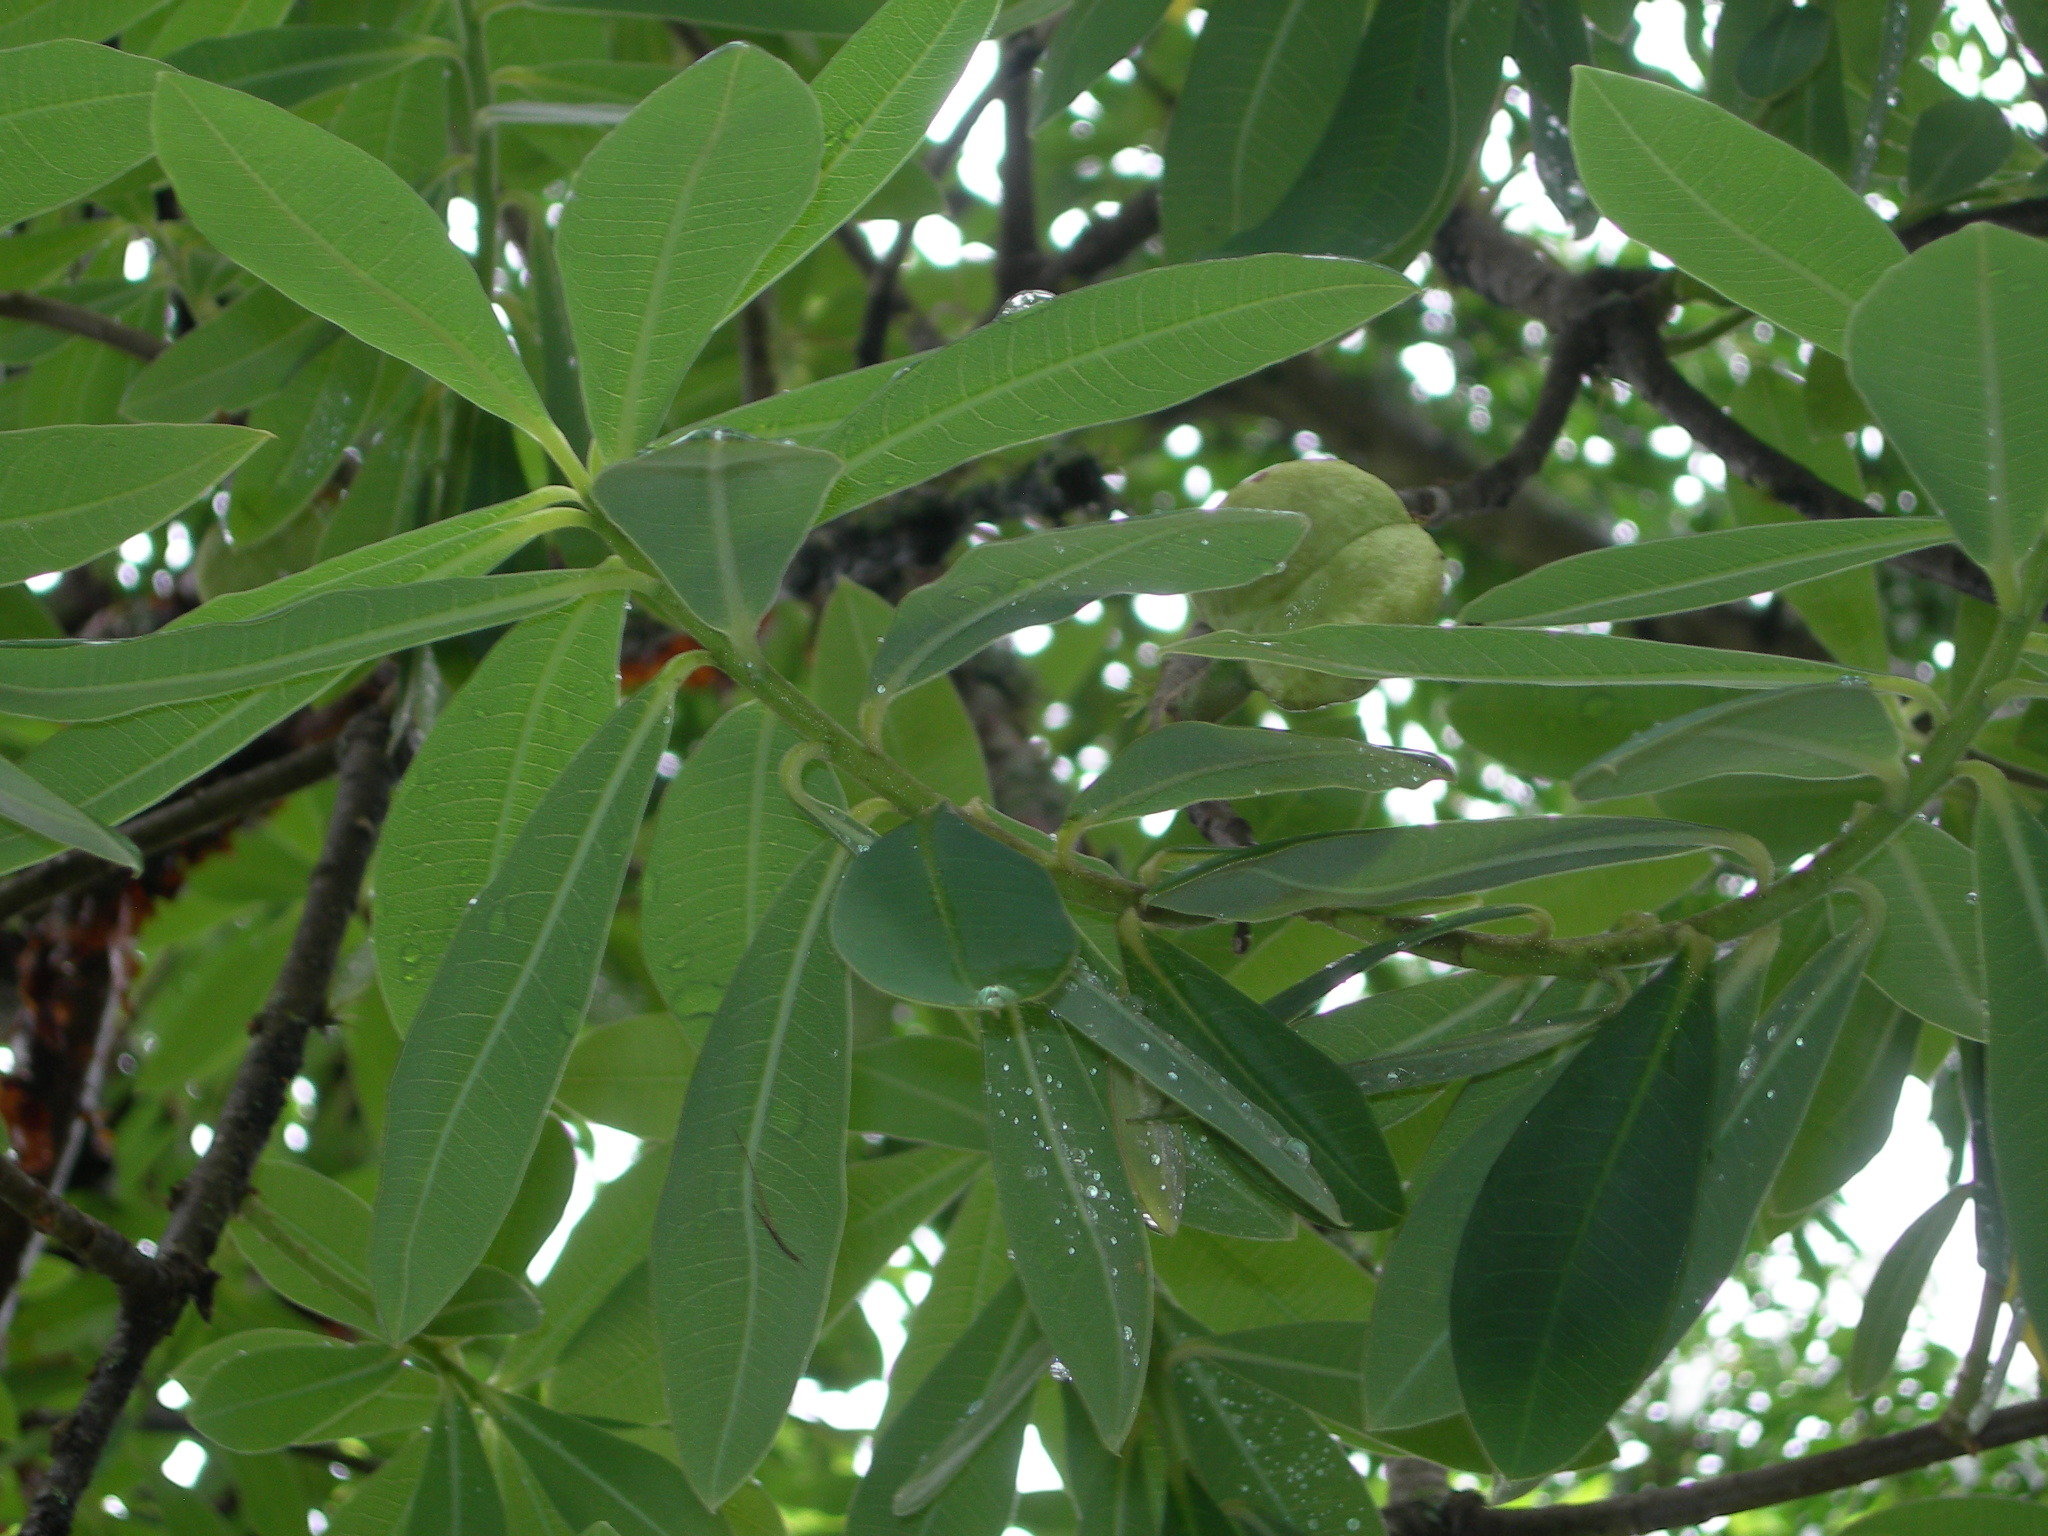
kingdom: Plantae
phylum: Tracheophyta
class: Magnoliopsida
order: Malpighiales
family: Euphorbiaceae
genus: Euphorbia
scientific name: Euphorbia lundelliana
